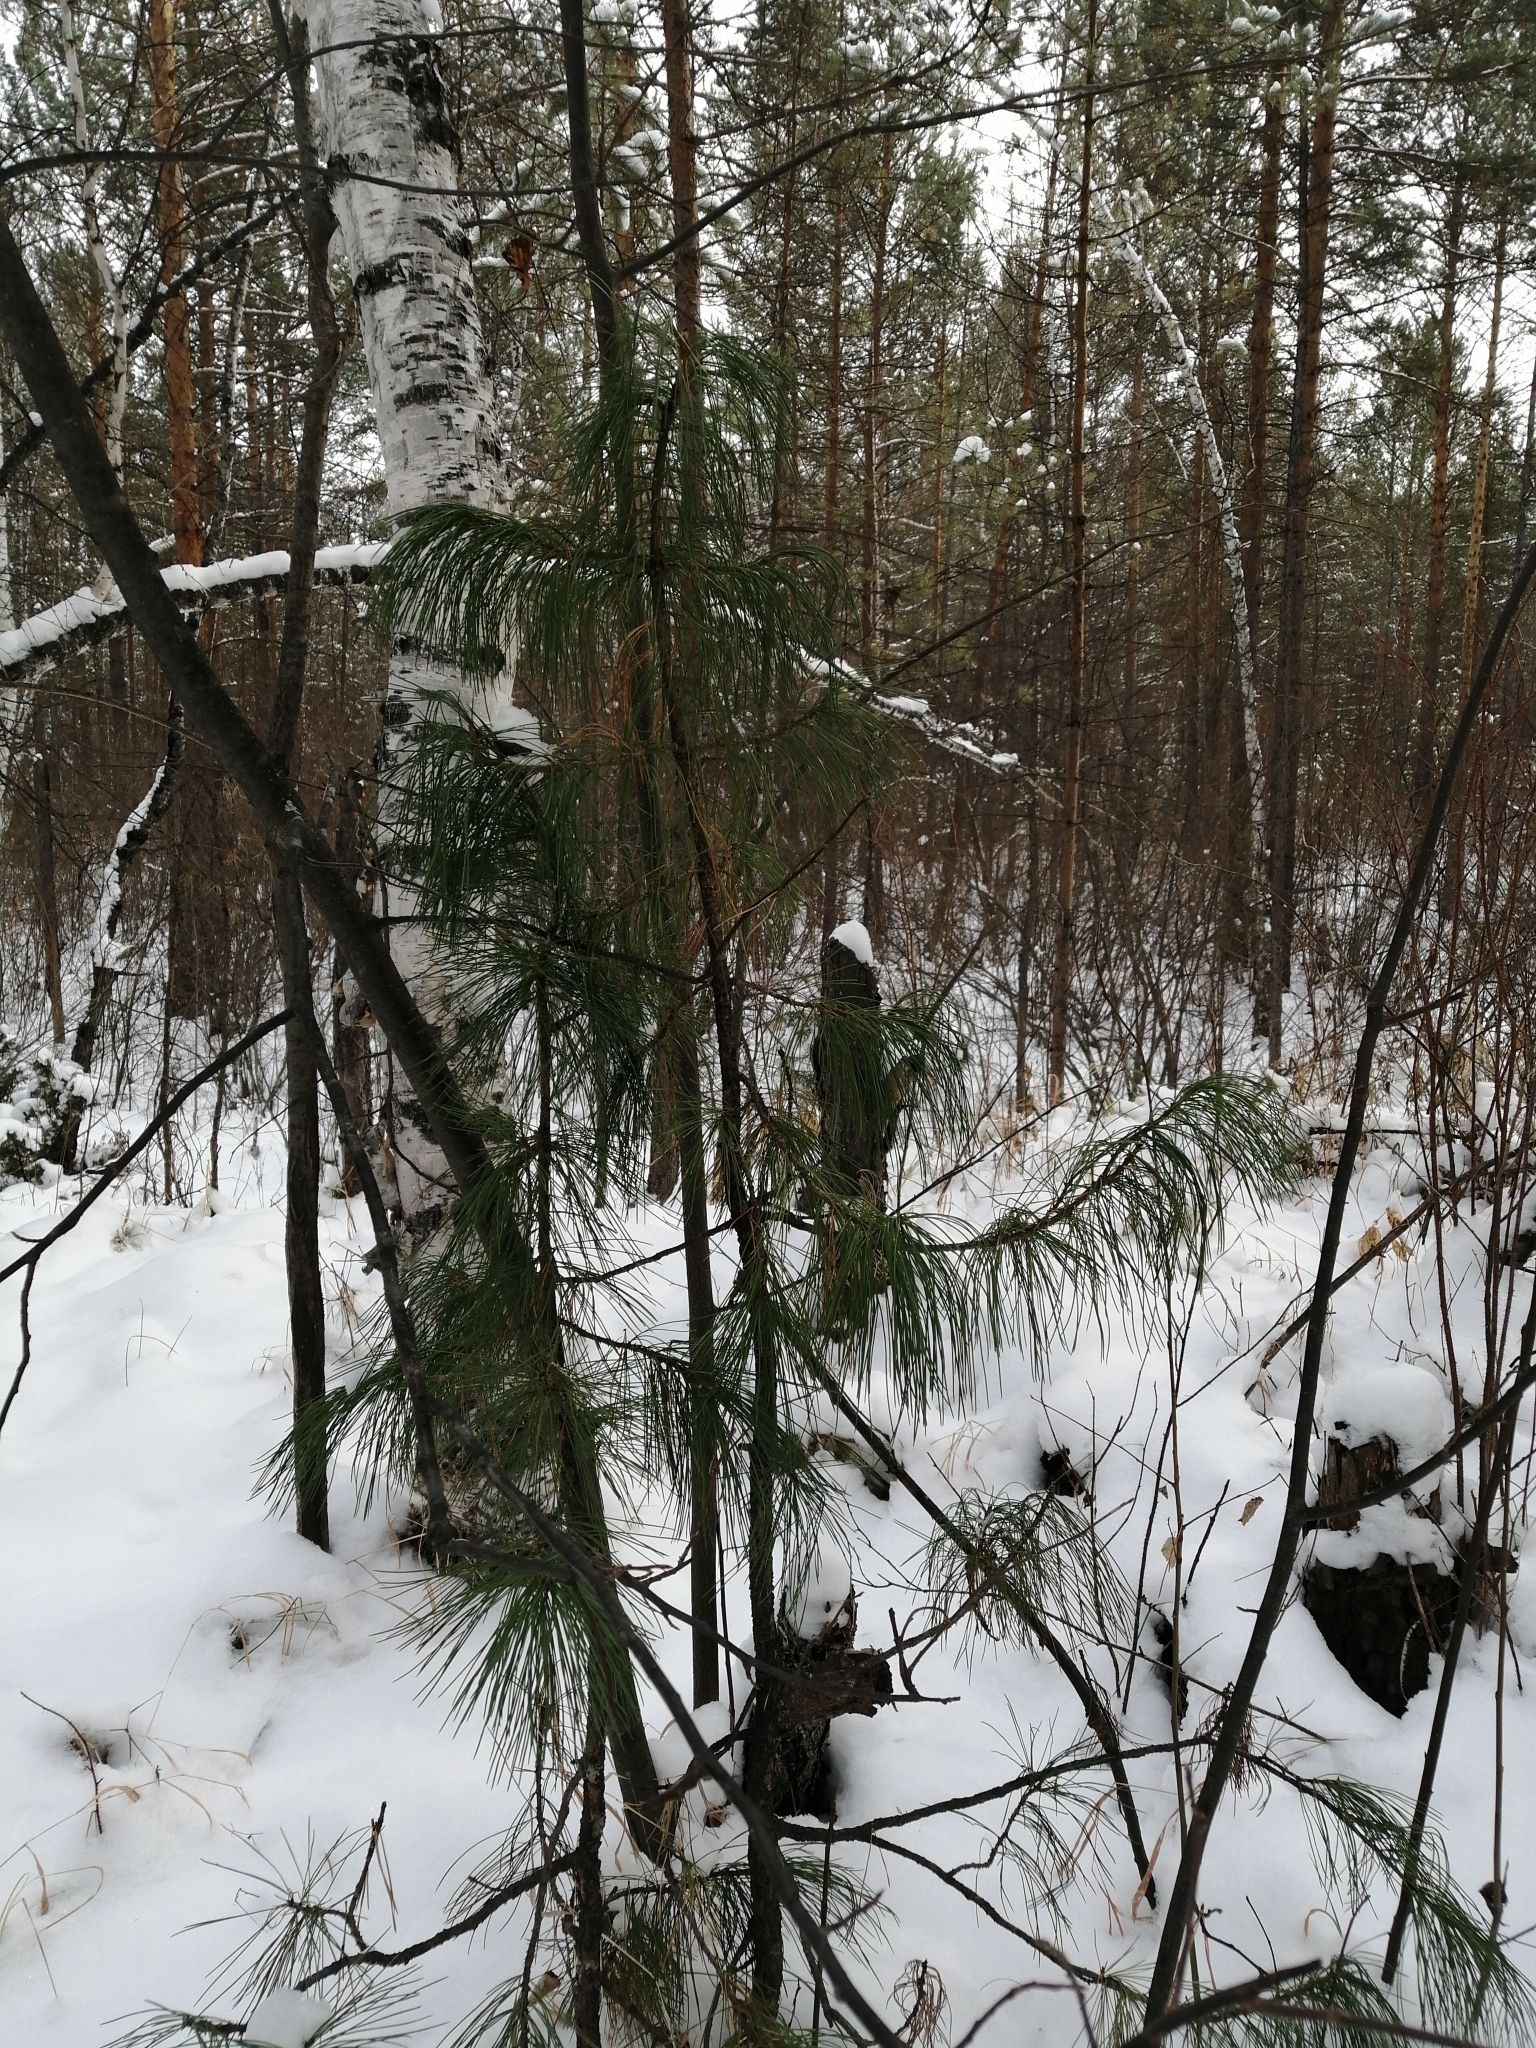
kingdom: Plantae
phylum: Tracheophyta
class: Pinopsida
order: Pinales
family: Pinaceae
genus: Pinus
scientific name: Pinus sibirica
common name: Siberian pine
